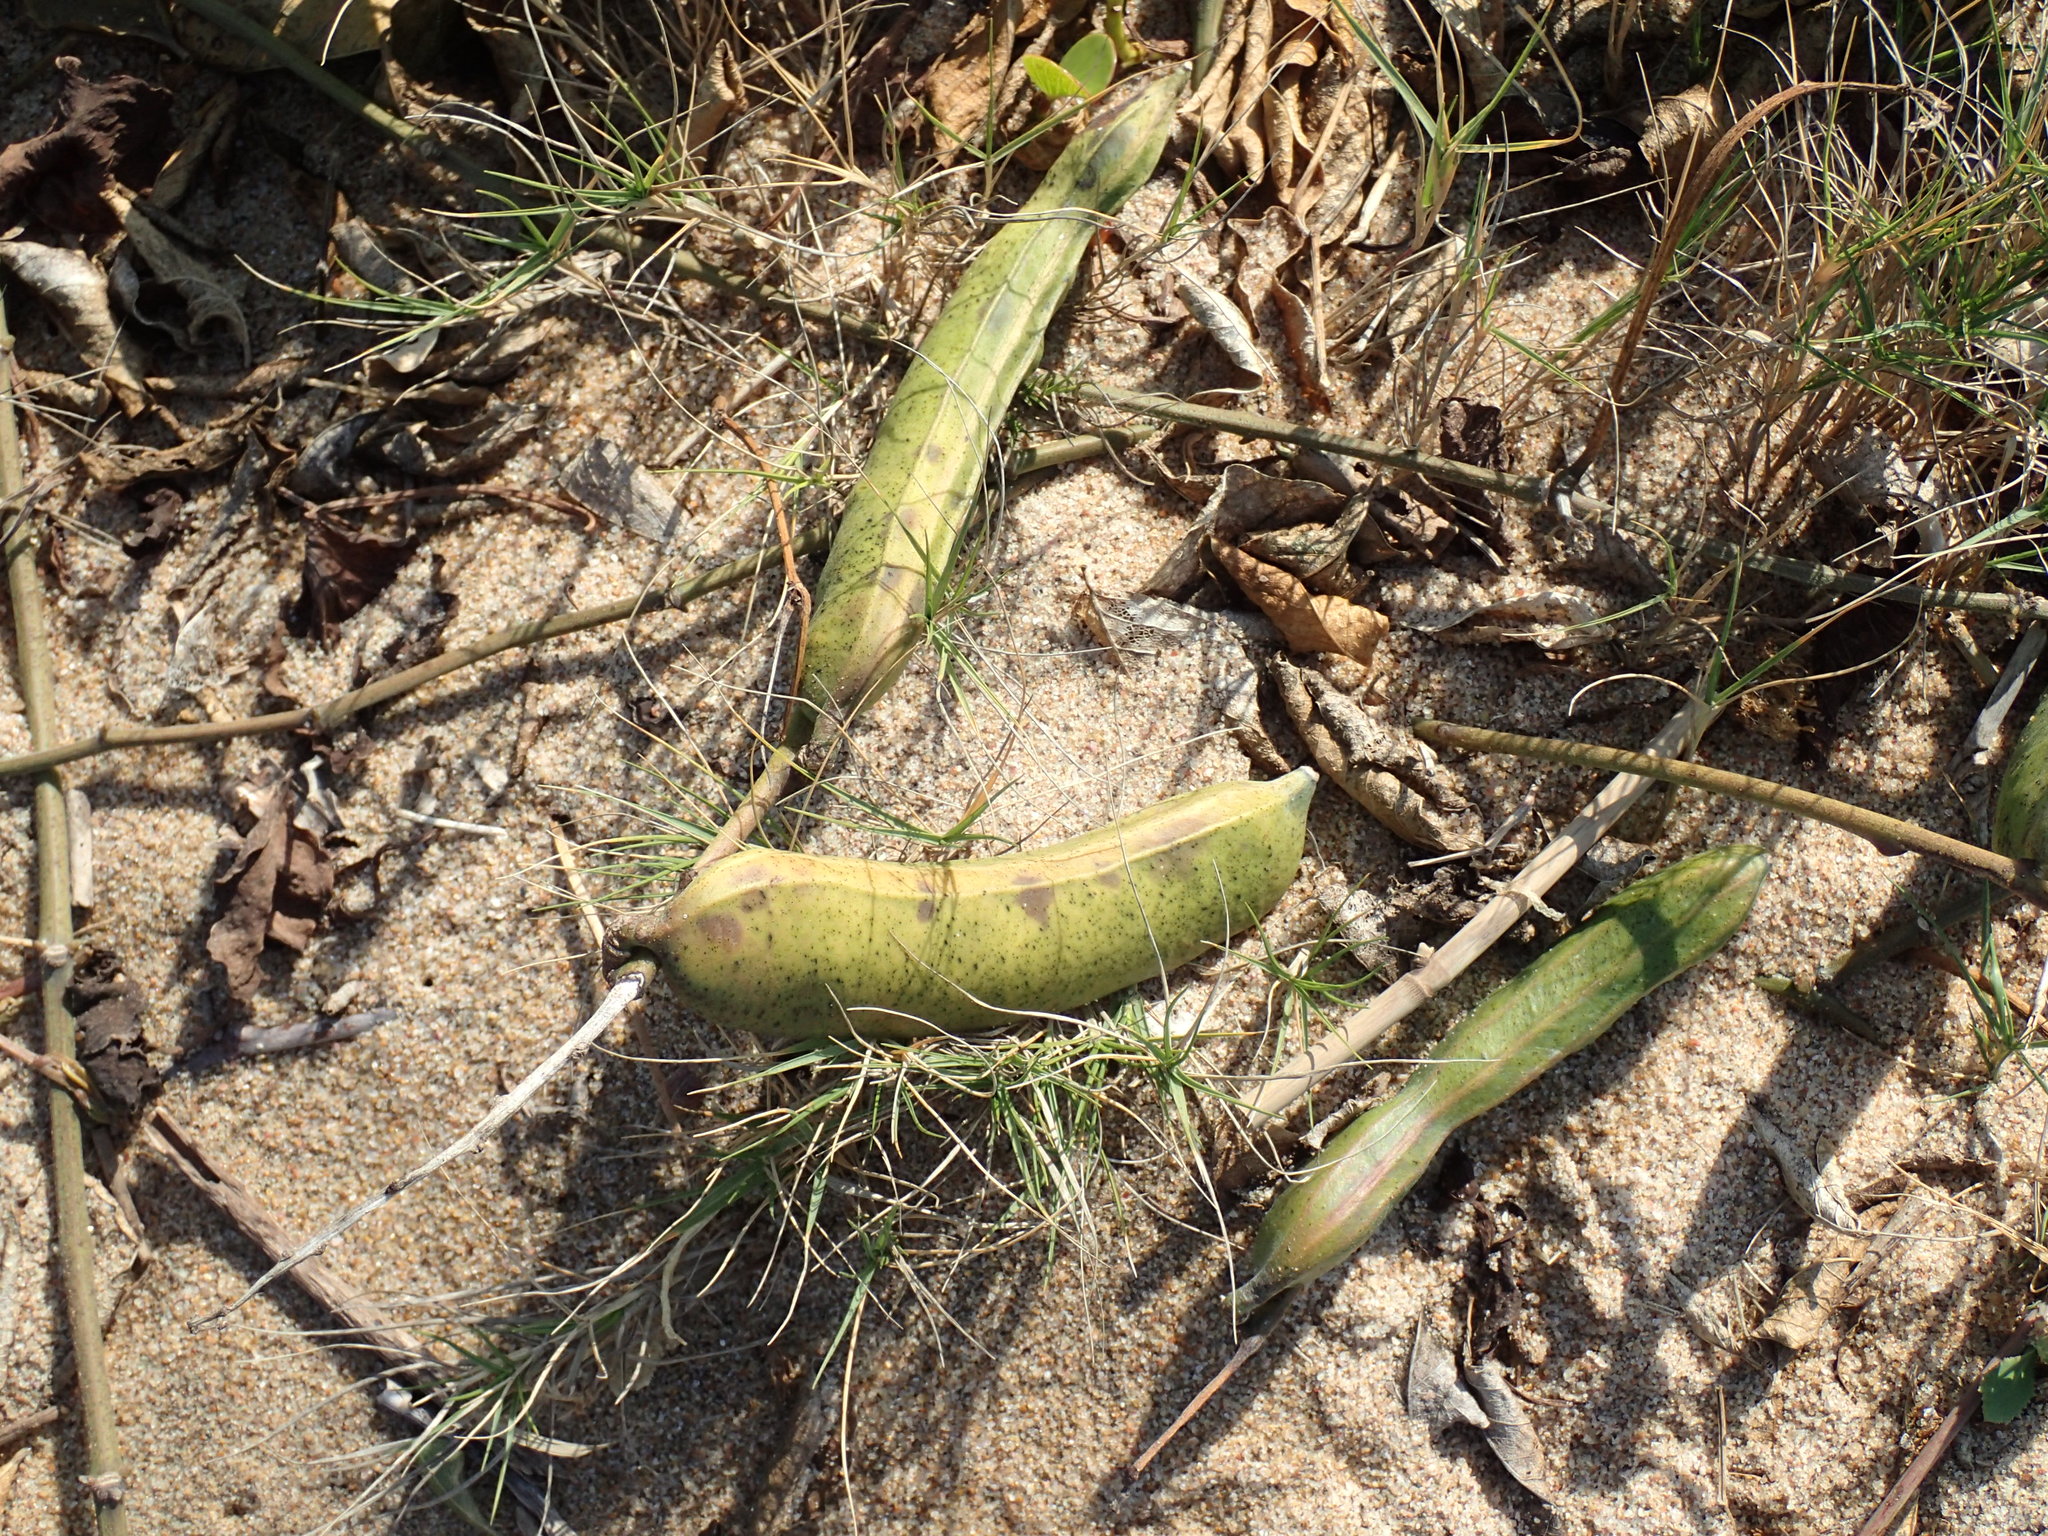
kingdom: Plantae
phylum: Tracheophyta
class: Magnoliopsida
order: Fabales
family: Fabaceae
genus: Canavalia
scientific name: Canavalia rosea
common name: Beach-bean
